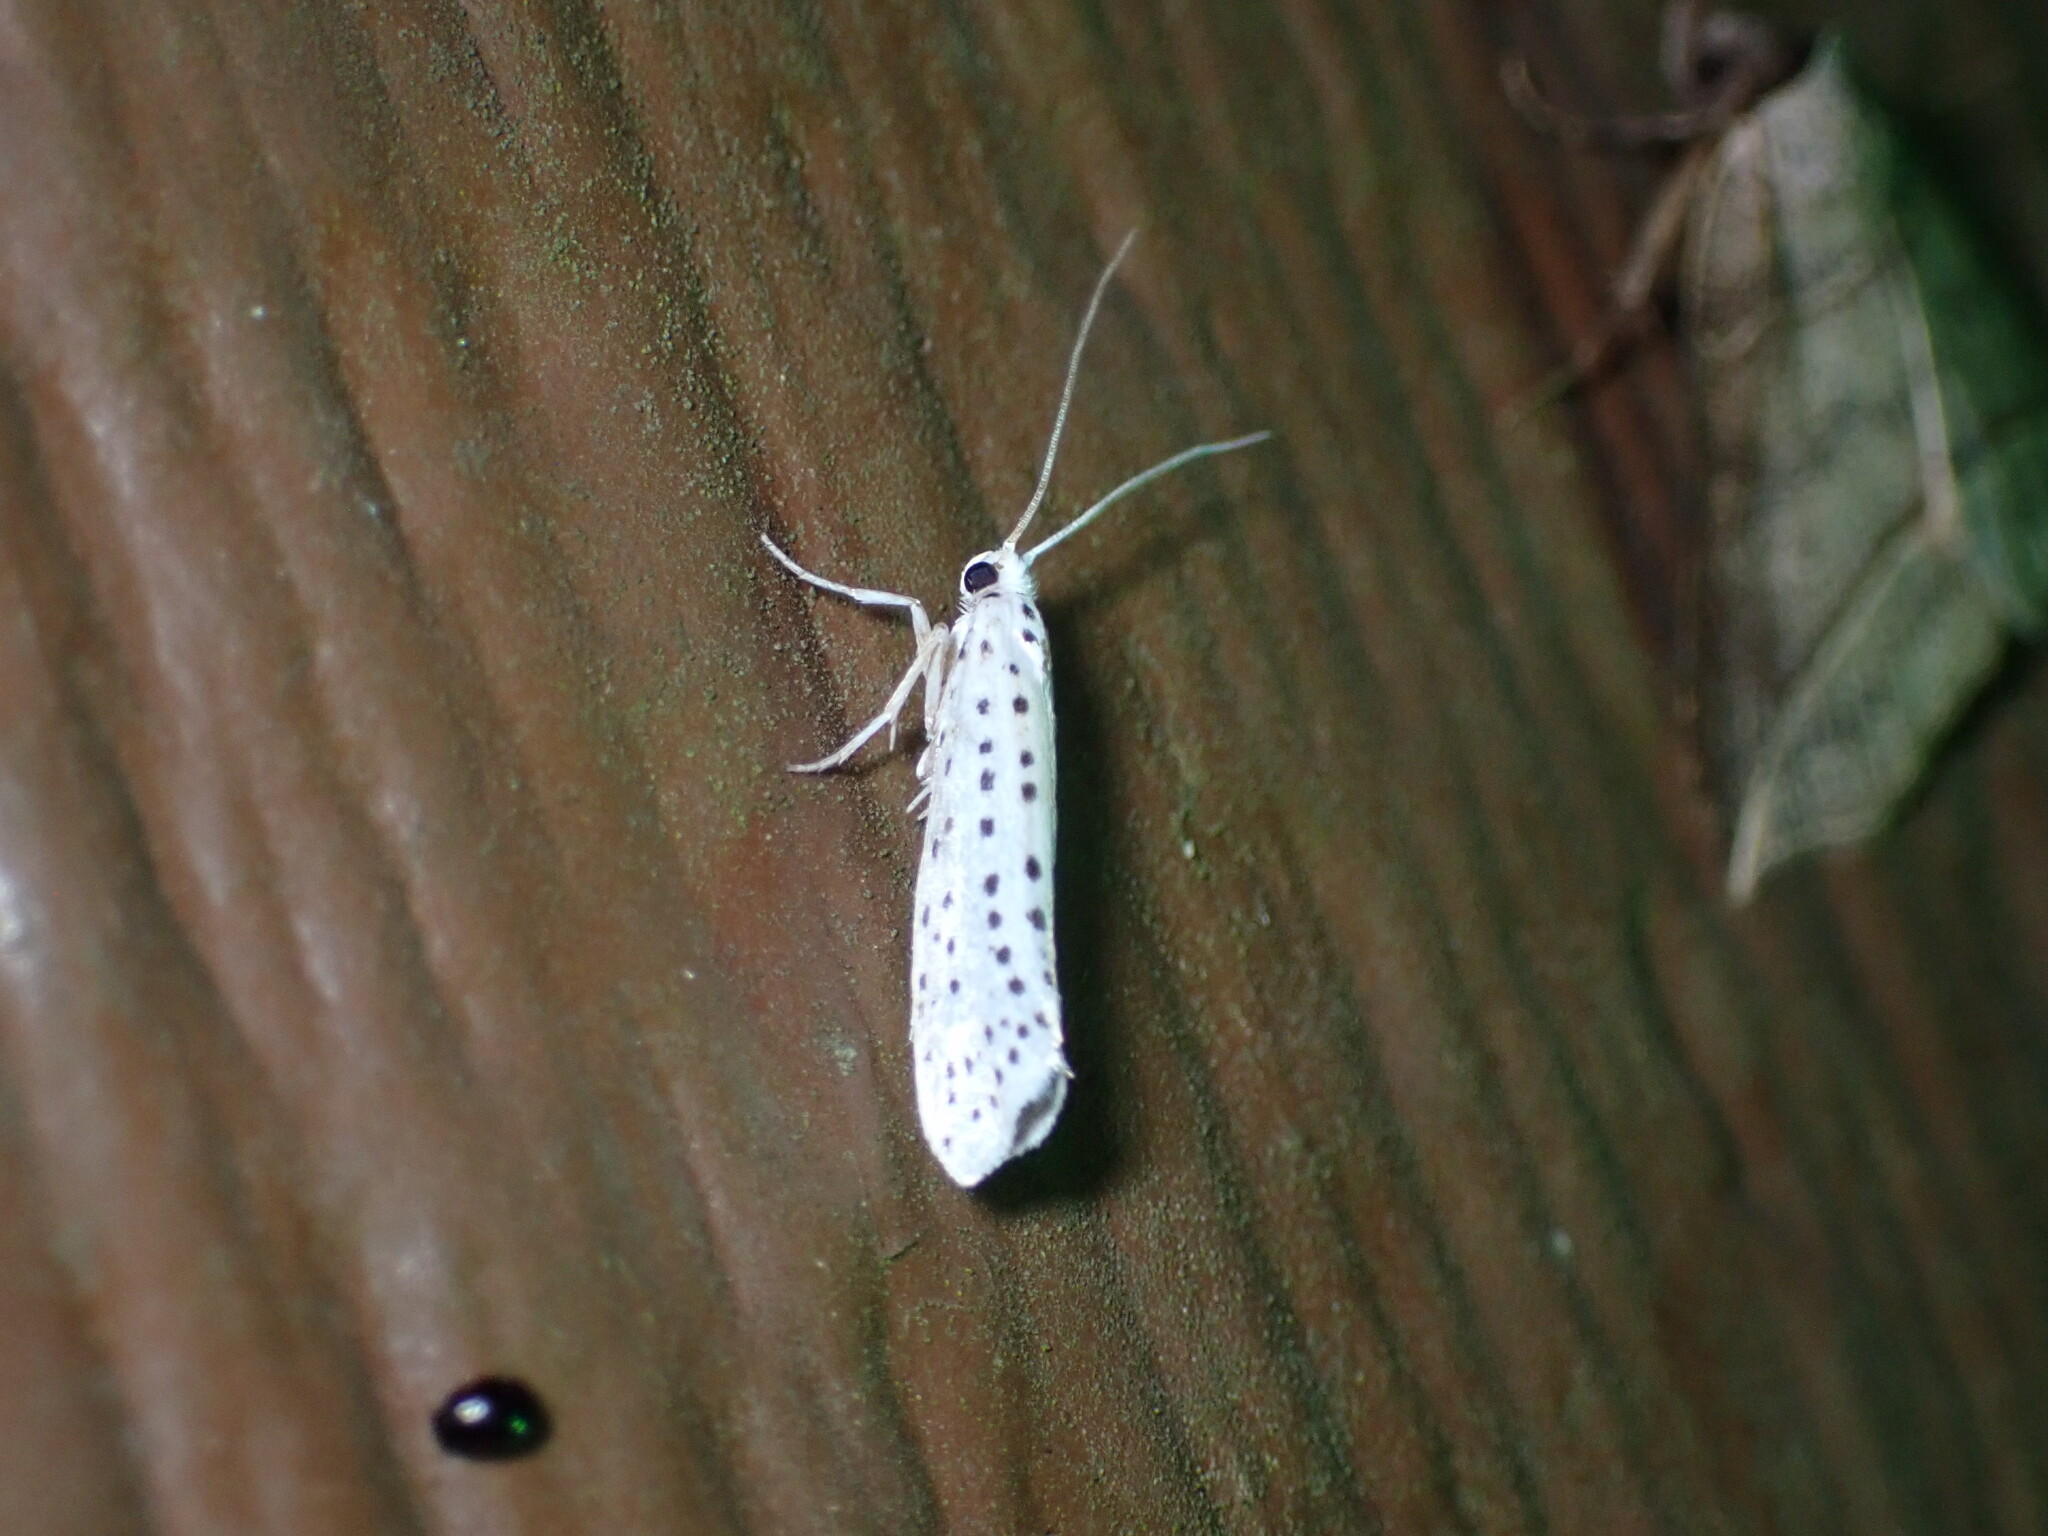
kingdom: Animalia
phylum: Arthropoda
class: Insecta
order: Lepidoptera
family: Yponomeutidae
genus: Yponomeuta
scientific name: Yponomeuta multipunctella
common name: American ermine moth
